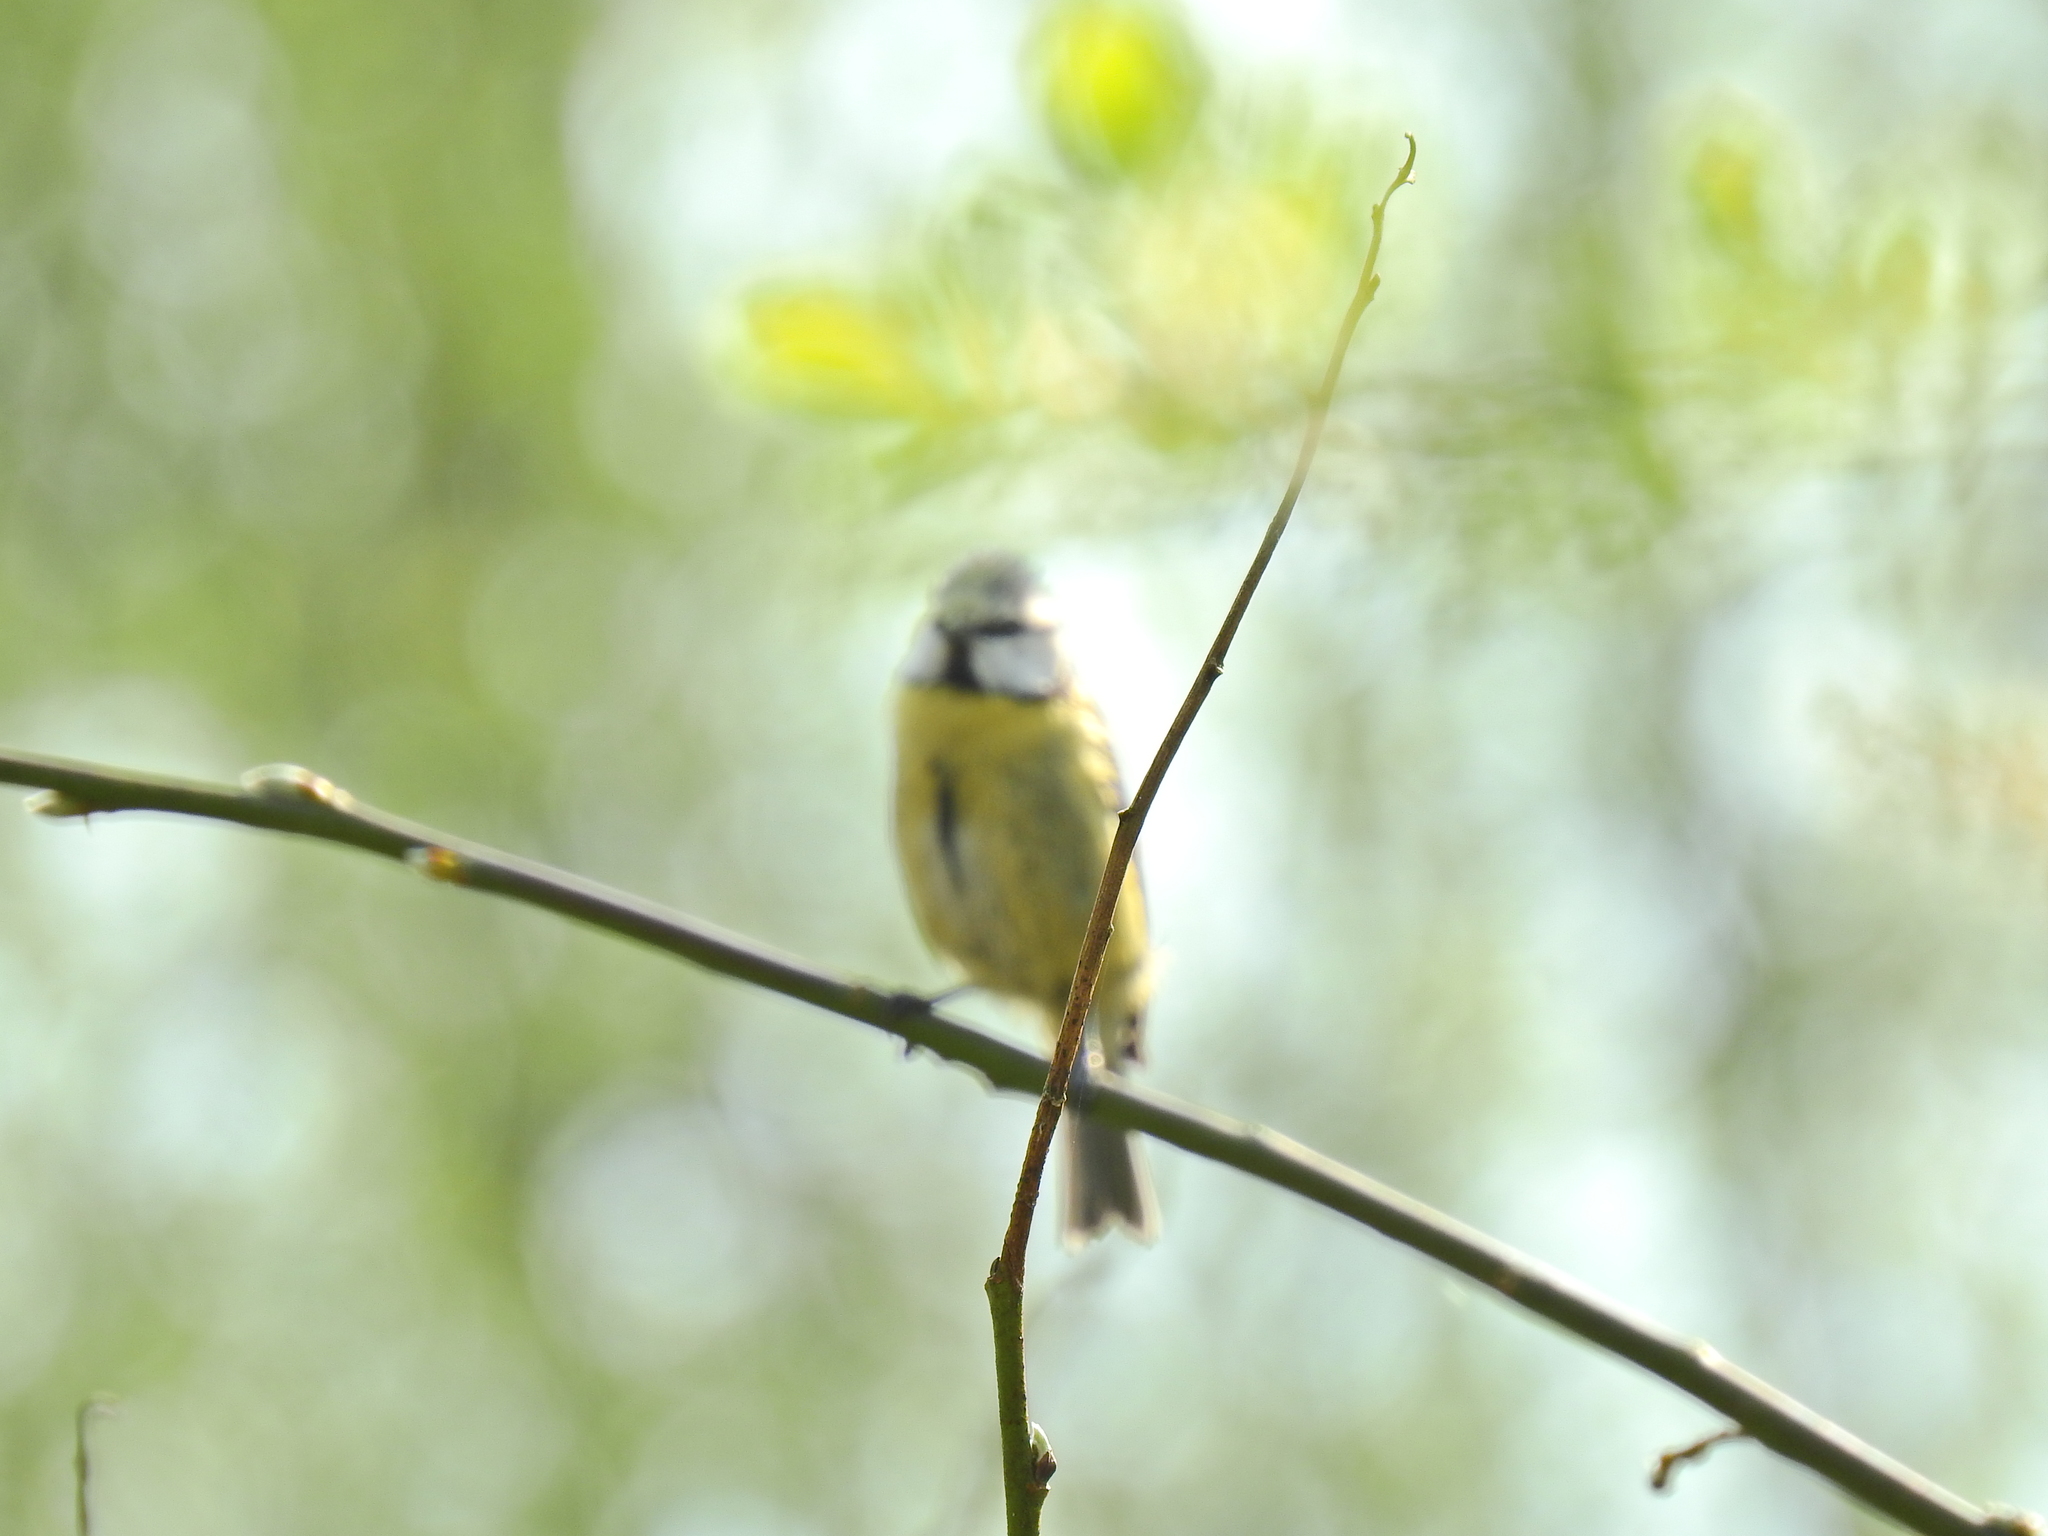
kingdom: Animalia
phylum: Chordata
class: Aves
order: Passeriformes
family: Paridae
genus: Cyanistes
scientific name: Cyanistes caeruleus
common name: Eurasian blue tit
